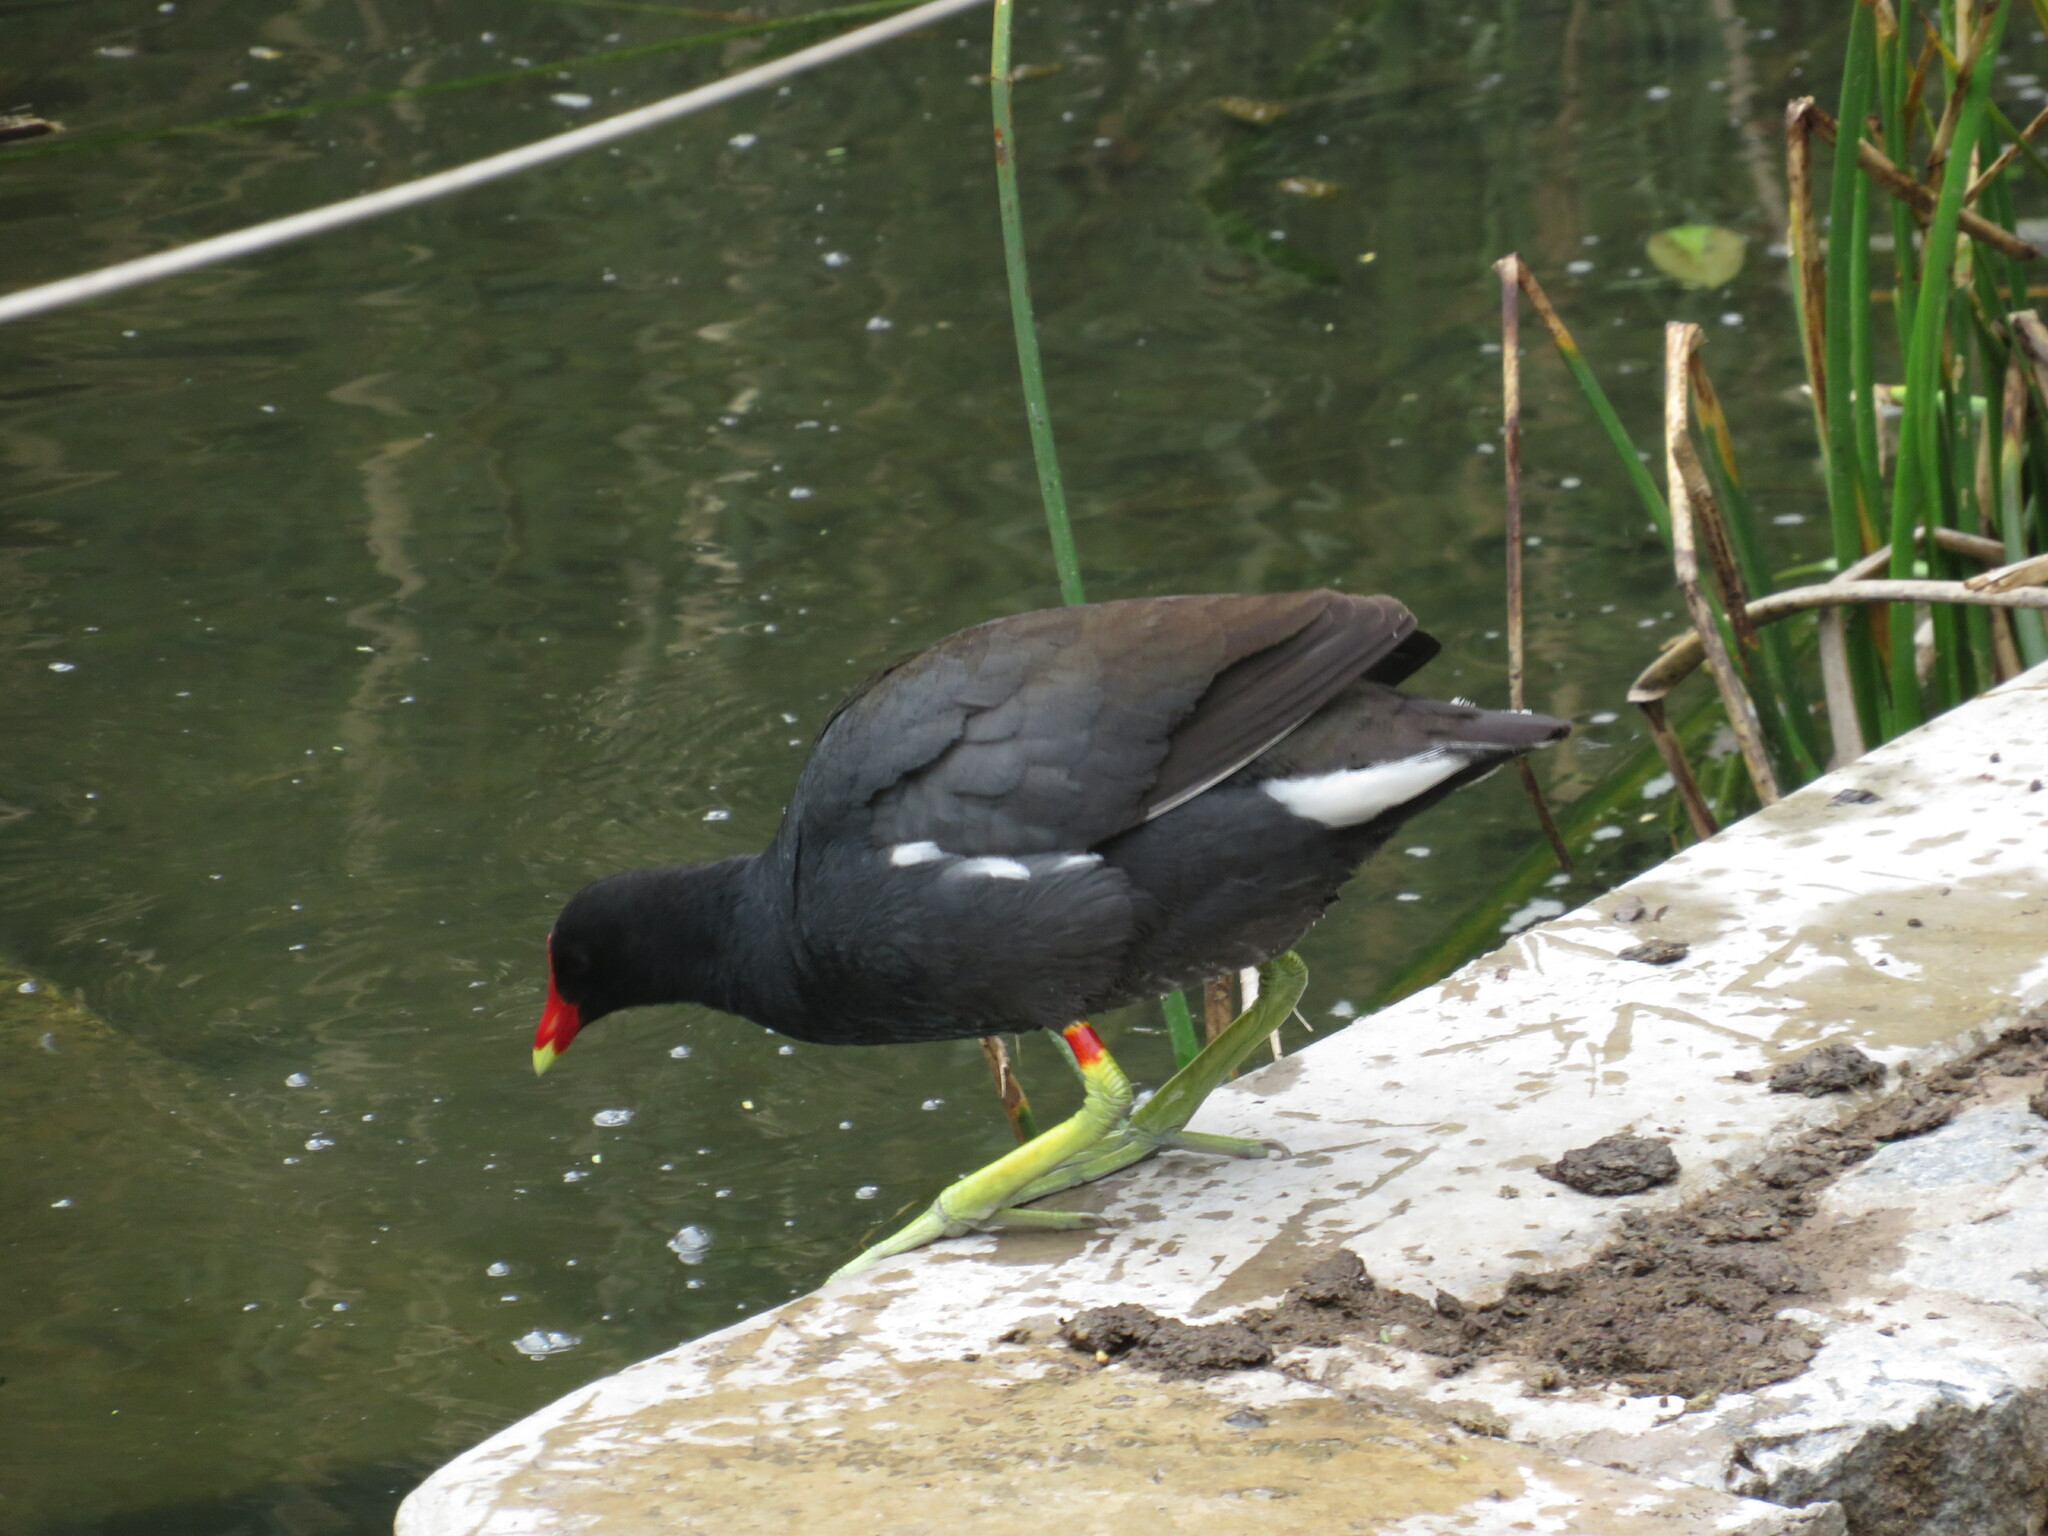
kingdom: Animalia
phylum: Chordata
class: Aves
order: Gruiformes
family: Rallidae
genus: Gallinula
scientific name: Gallinula chloropus
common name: Common moorhen
